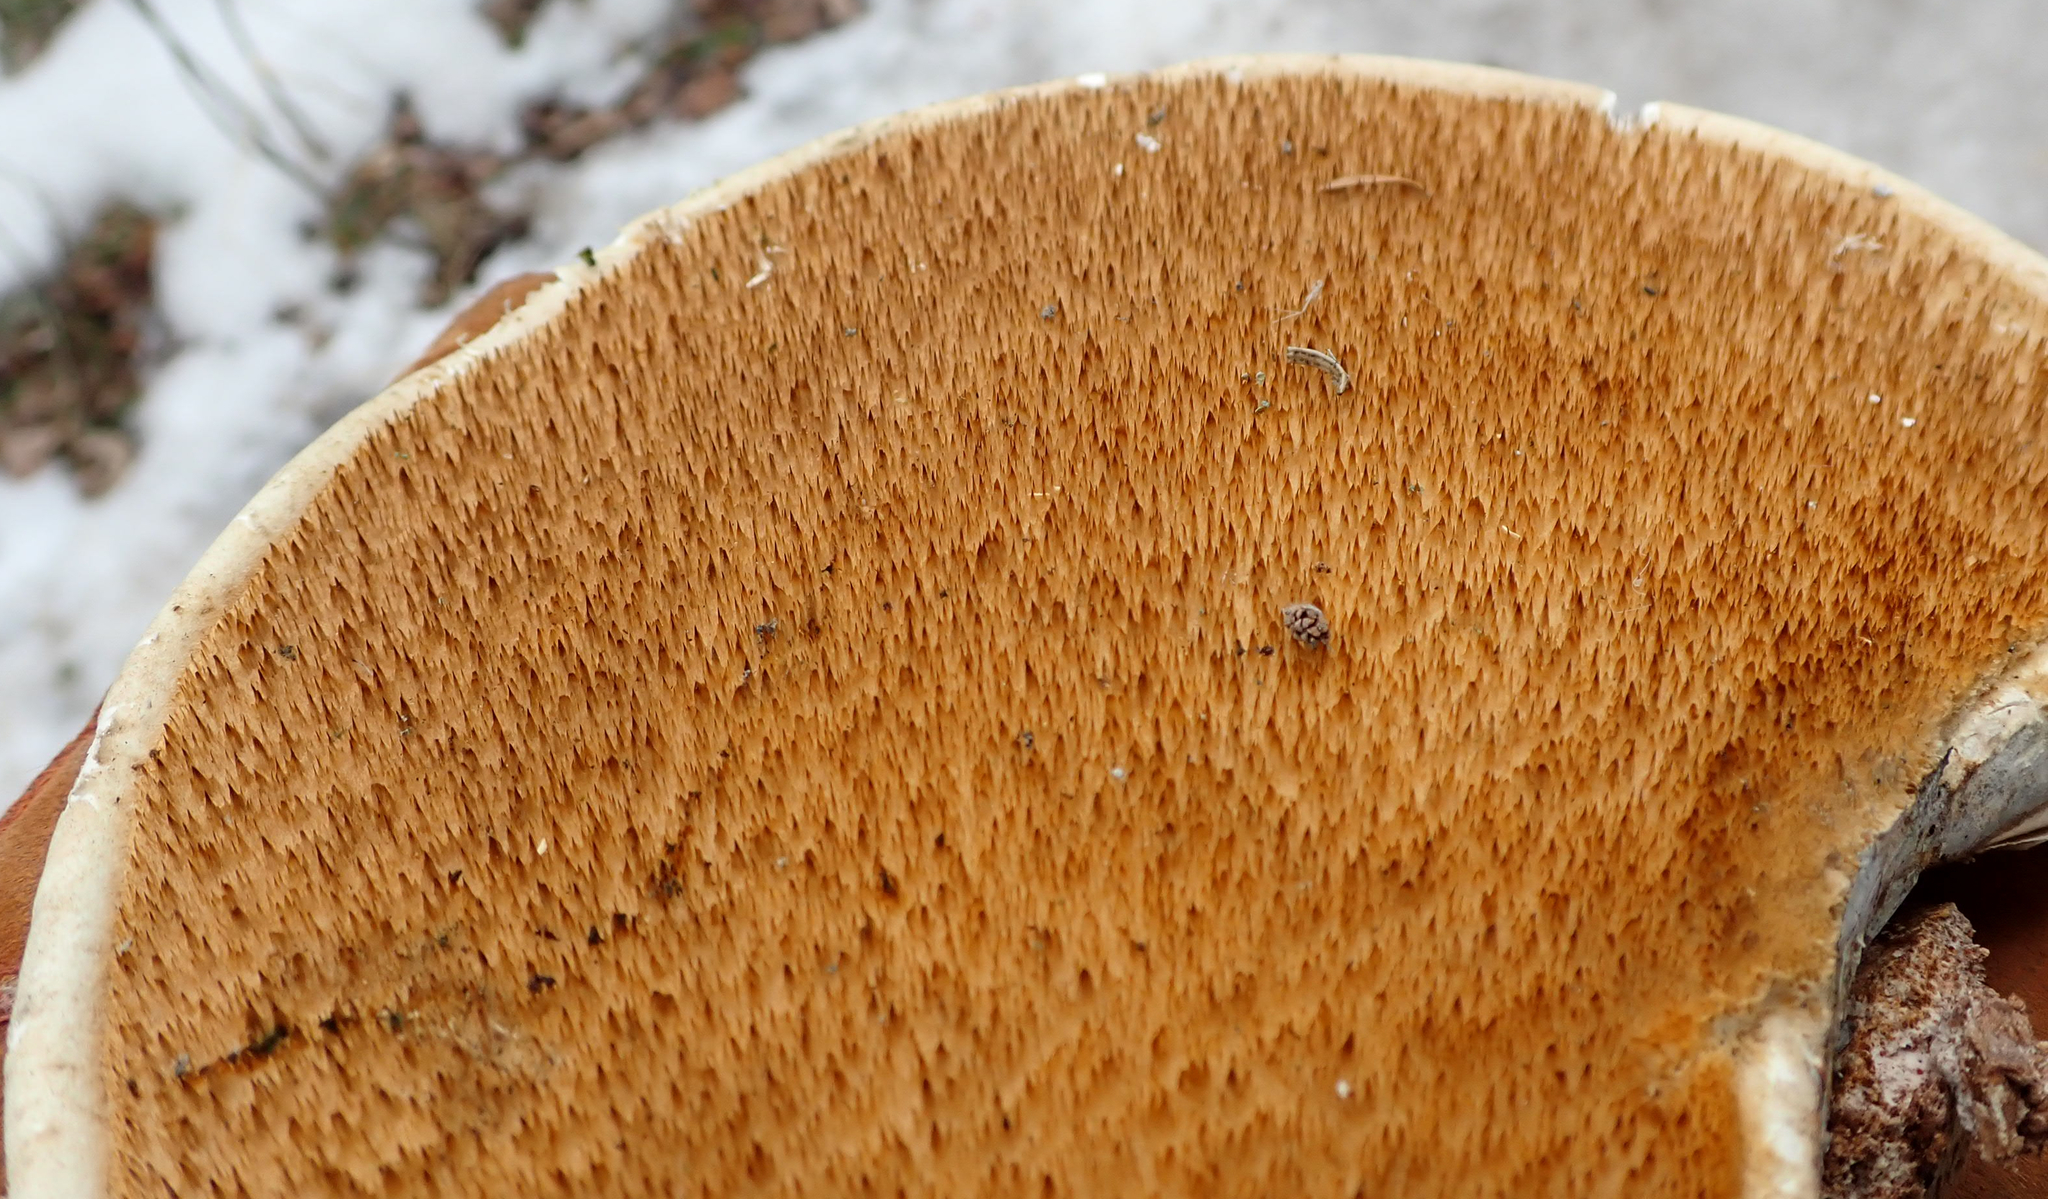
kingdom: Fungi
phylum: Basidiomycota
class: Agaricomycetes
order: Polyporales
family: Fomitopsidaceae
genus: Fomitopsis
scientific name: Fomitopsis betulina
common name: Birch polypore
